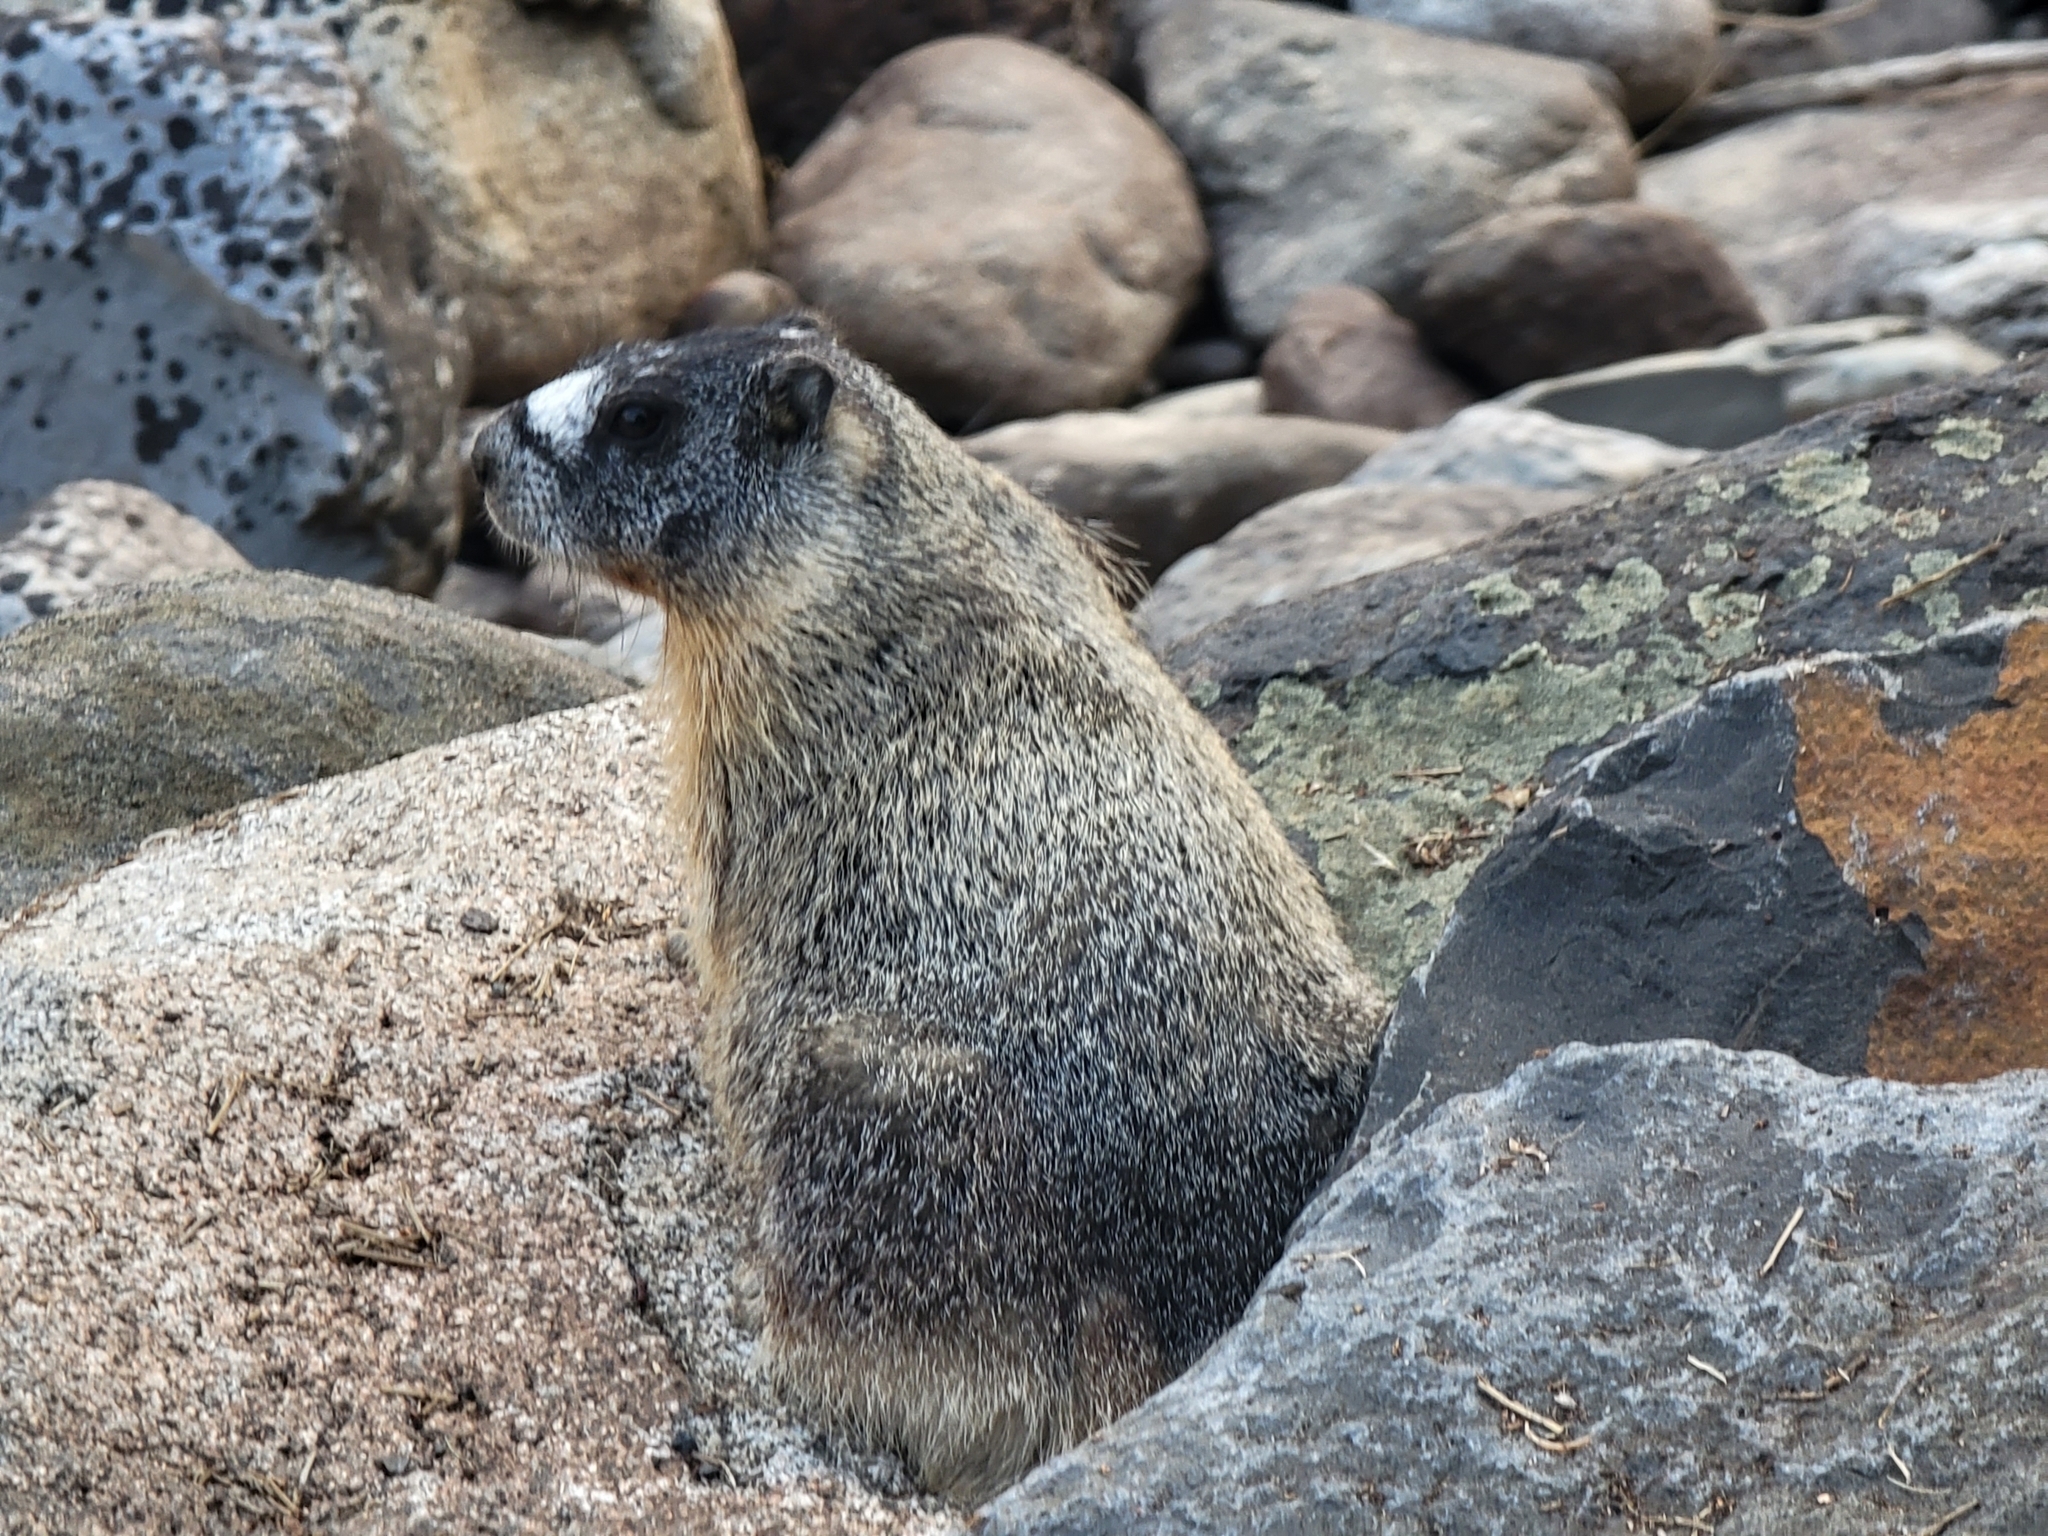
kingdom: Animalia
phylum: Chordata
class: Mammalia
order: Rodentia
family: Sciuridae
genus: Marmota
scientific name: Marmota flaviventris
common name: Yellow-bellied marmot
